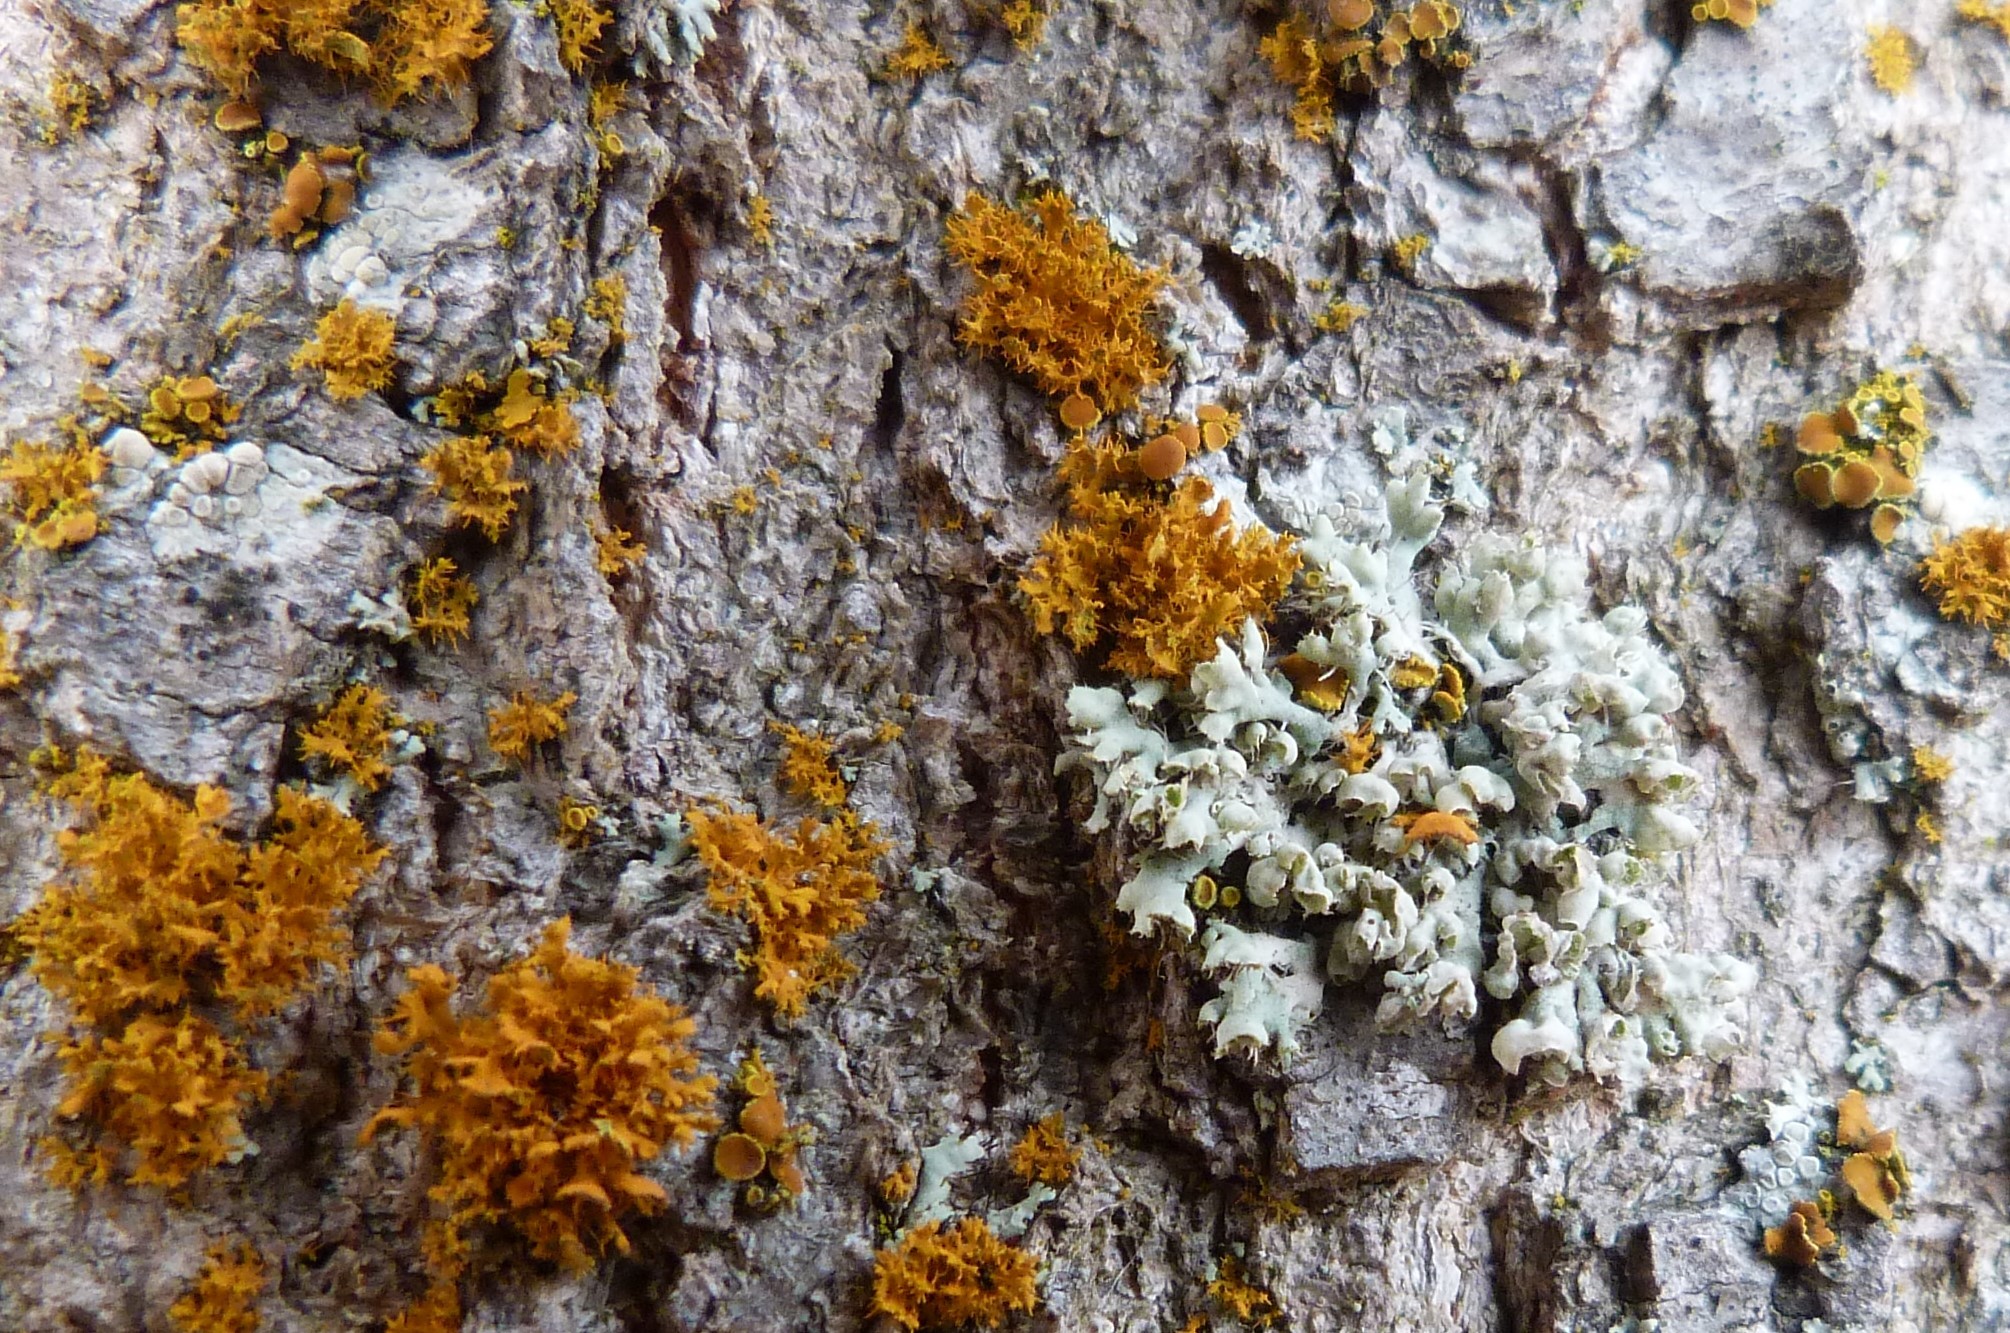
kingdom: Fungi
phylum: Ascomycota
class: Lecanoromycetes
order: Caliciales
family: Physciaceae
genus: Physcia
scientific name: Physcia adscendens
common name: Hooded rosette lichen
